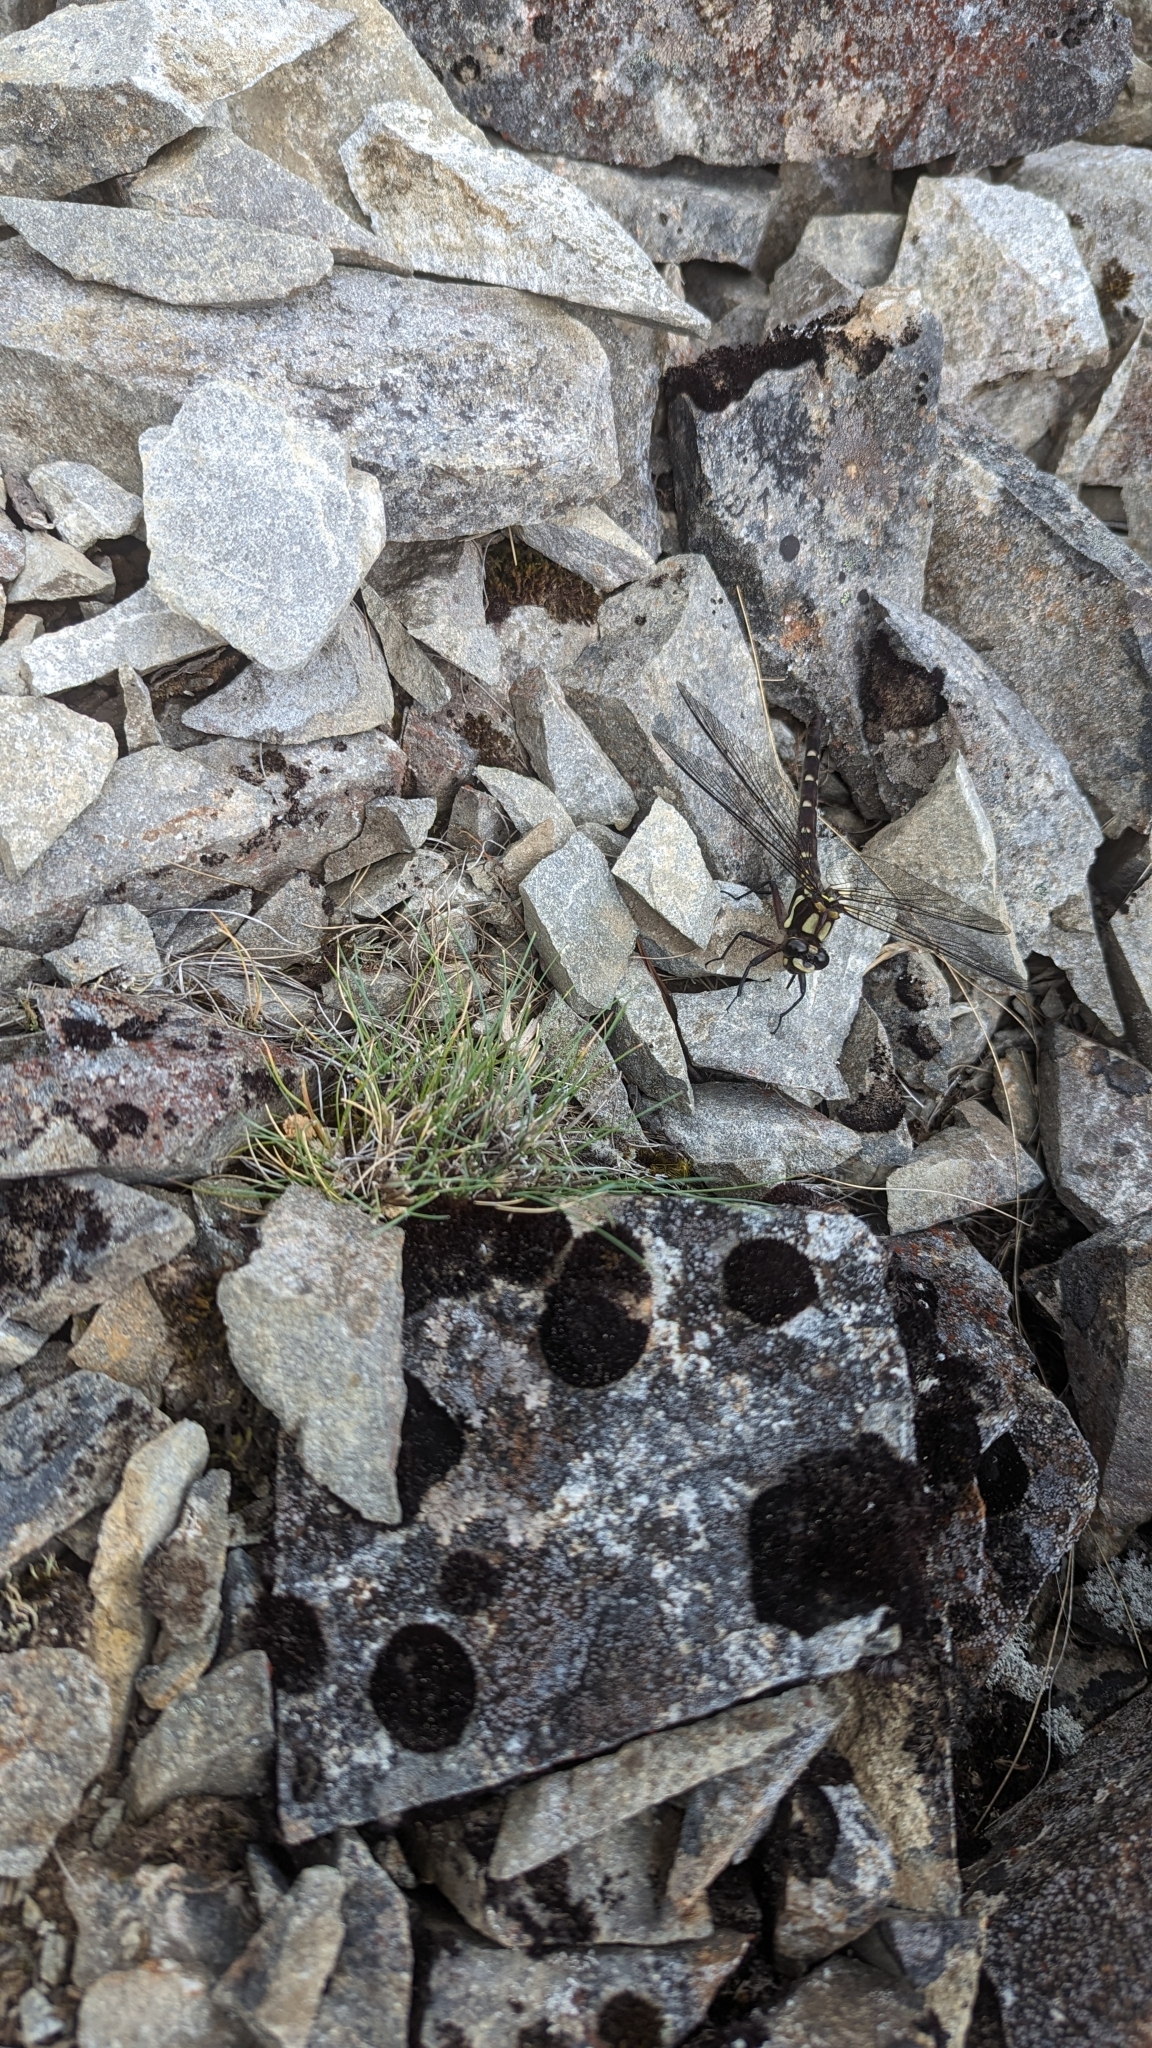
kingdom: Animalia
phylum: Arthropoda
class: Insecta
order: Odonata
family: Petaluridae
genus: Uropetala
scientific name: Uropetala carovei
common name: Bush giant dragonfly
